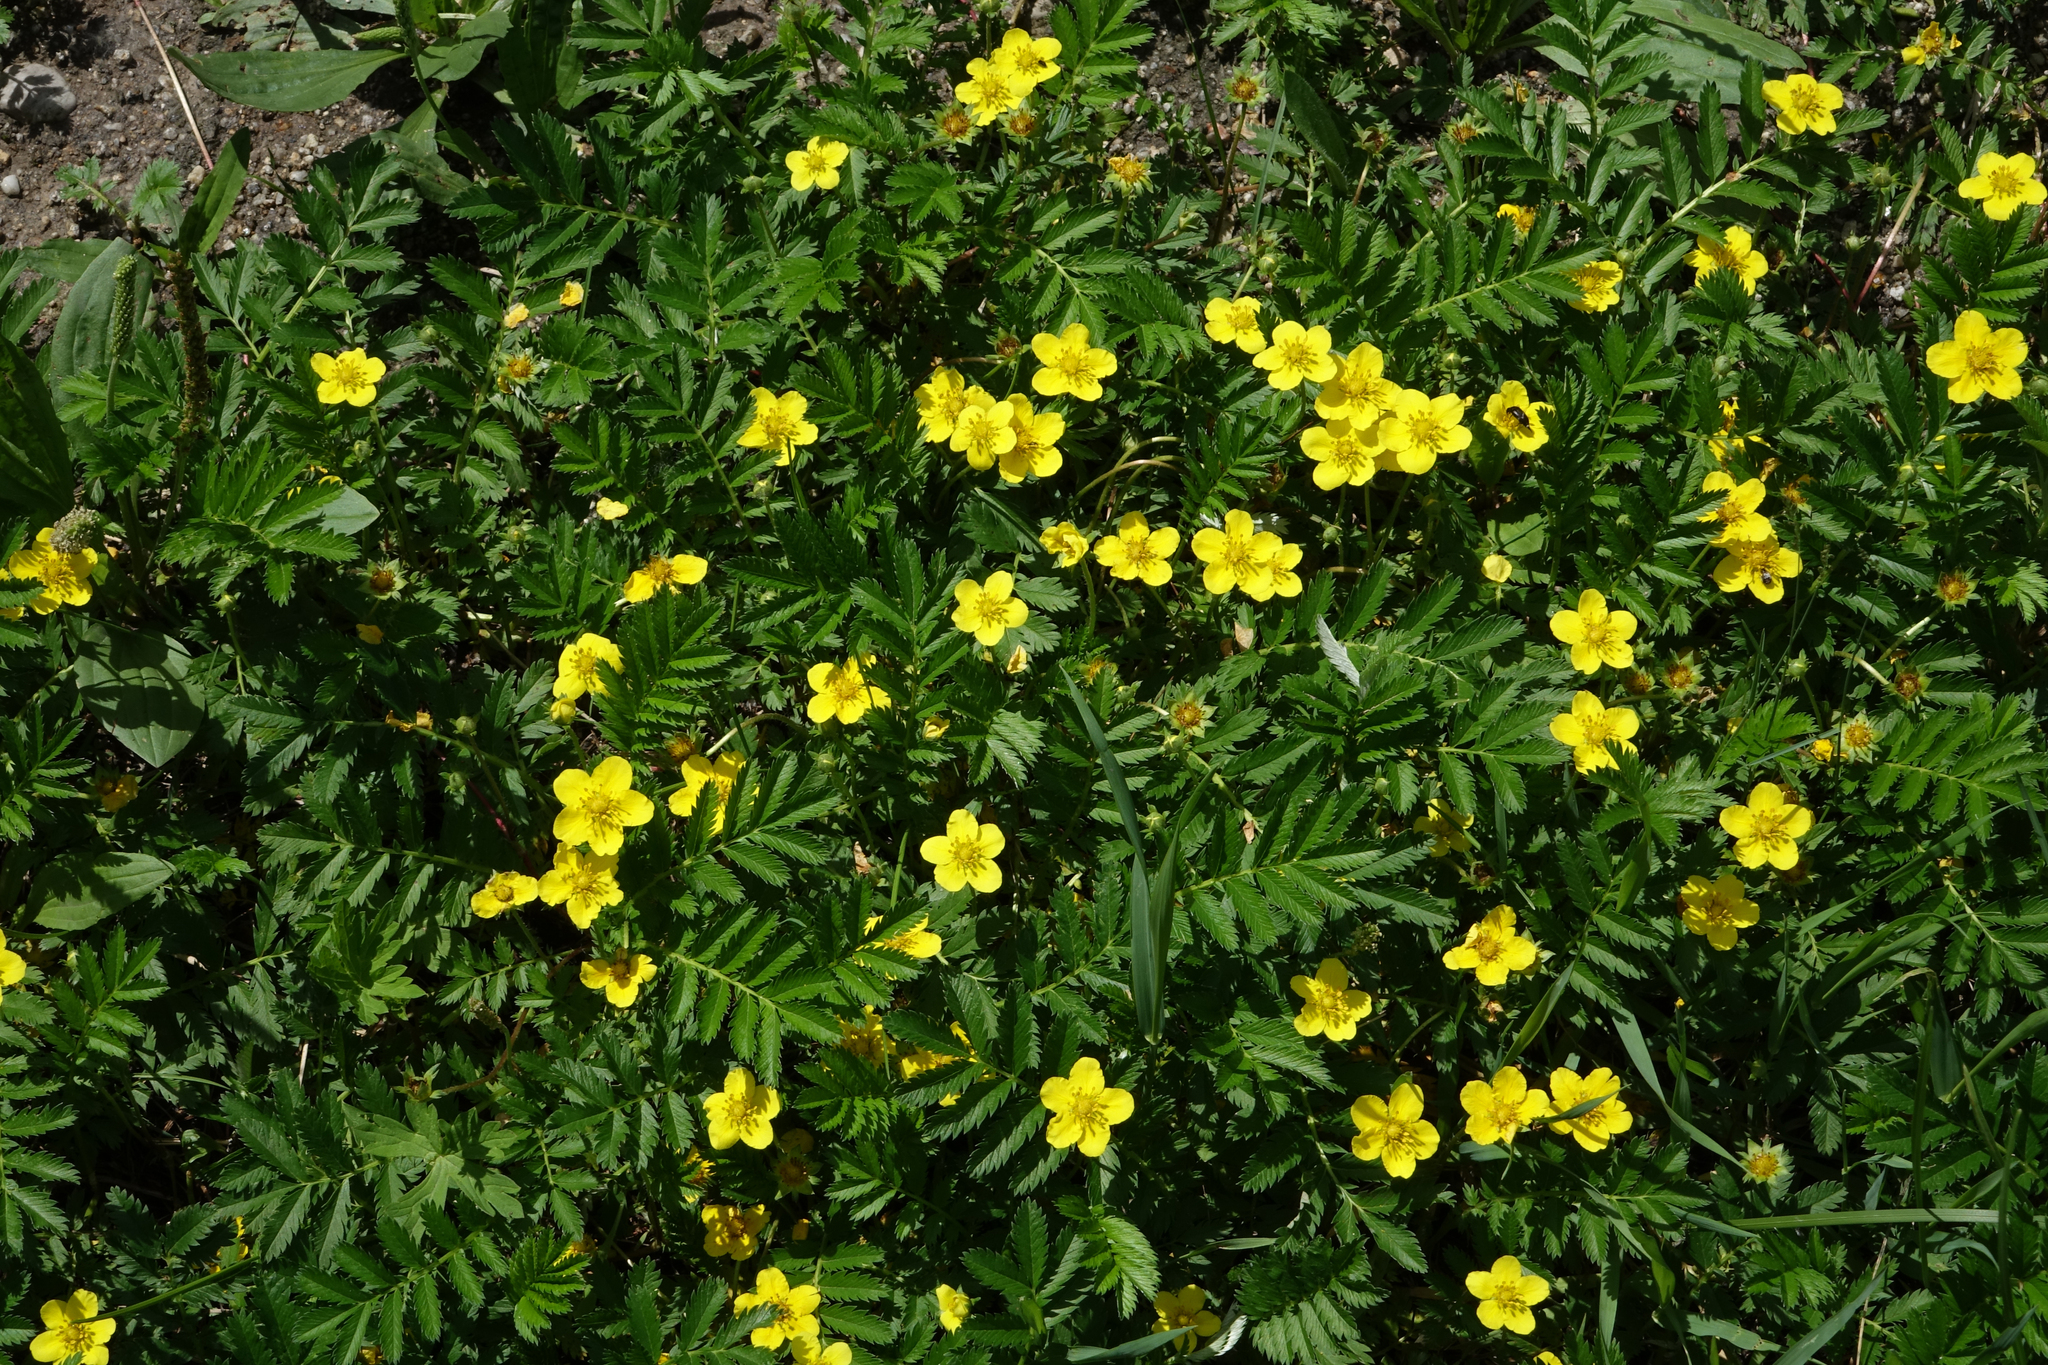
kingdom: Plantae
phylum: Tracheophyta
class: Magnoliopsida
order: Rosales
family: Rosaceae
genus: Argentina
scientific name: Argentina anserina
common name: Common silverweed
